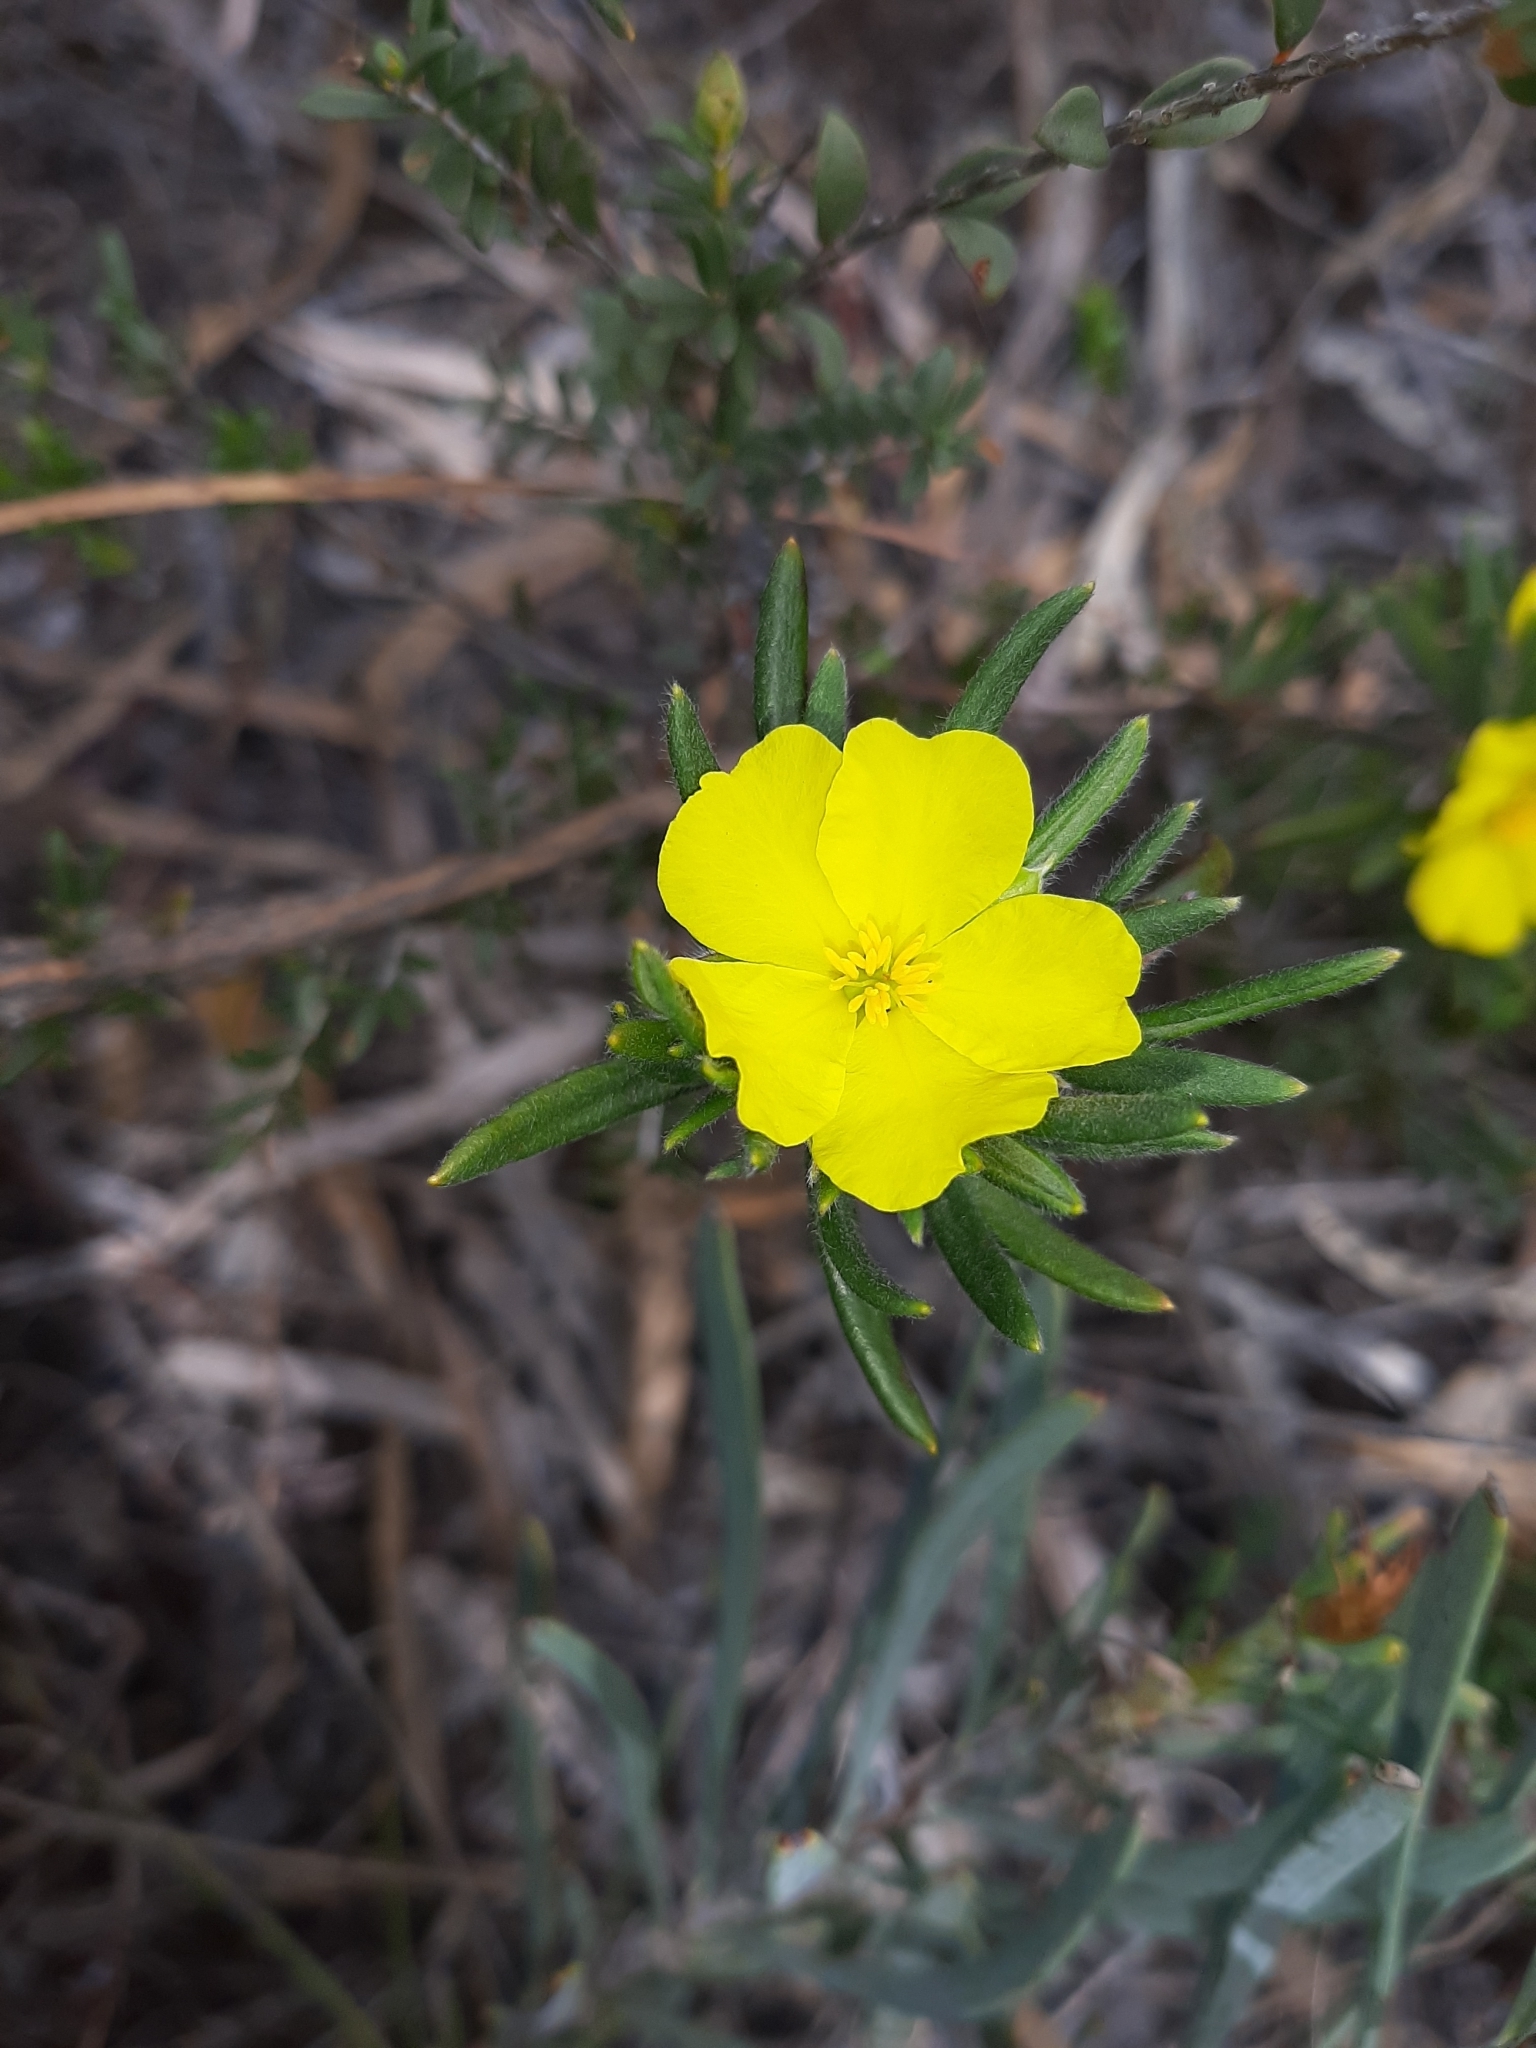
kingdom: Plantae
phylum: Tracheophyta
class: Magnoliopsida
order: Dilleniales
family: Dilleniaceae
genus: Hibbertia
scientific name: Hibbertia sericosepala
